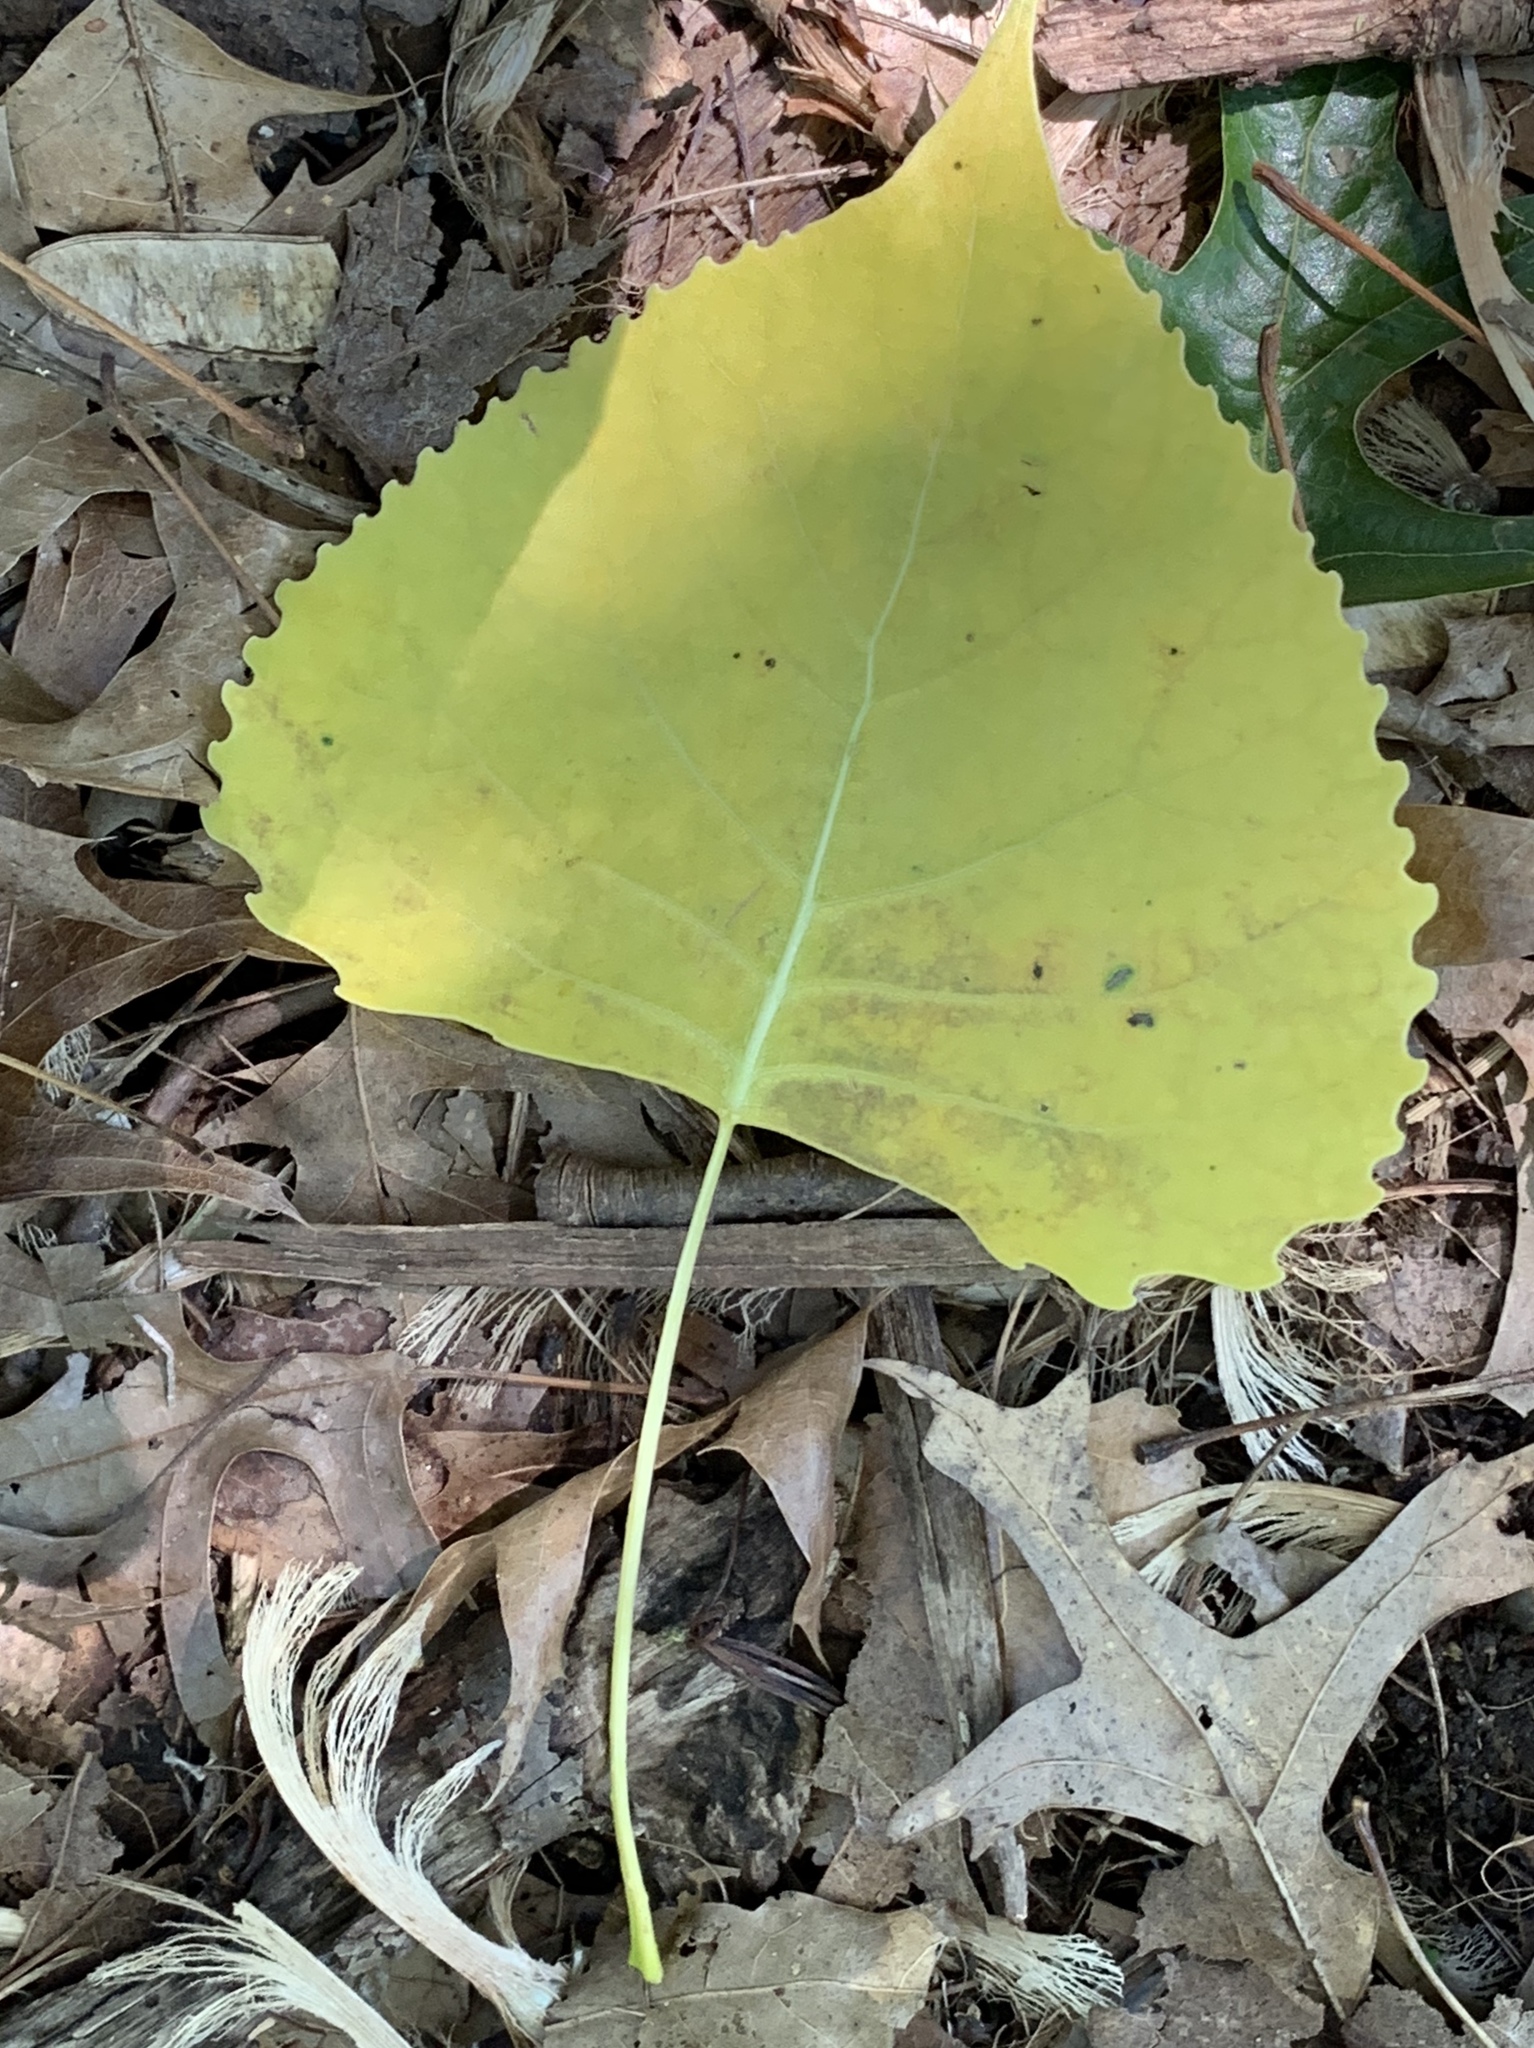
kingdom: Plantae
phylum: Tracheophyta
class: Magnoliopsida
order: Malpighiales
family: Salicaceae
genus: Populus
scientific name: Populus deltoides
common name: Eastern cottonwood
